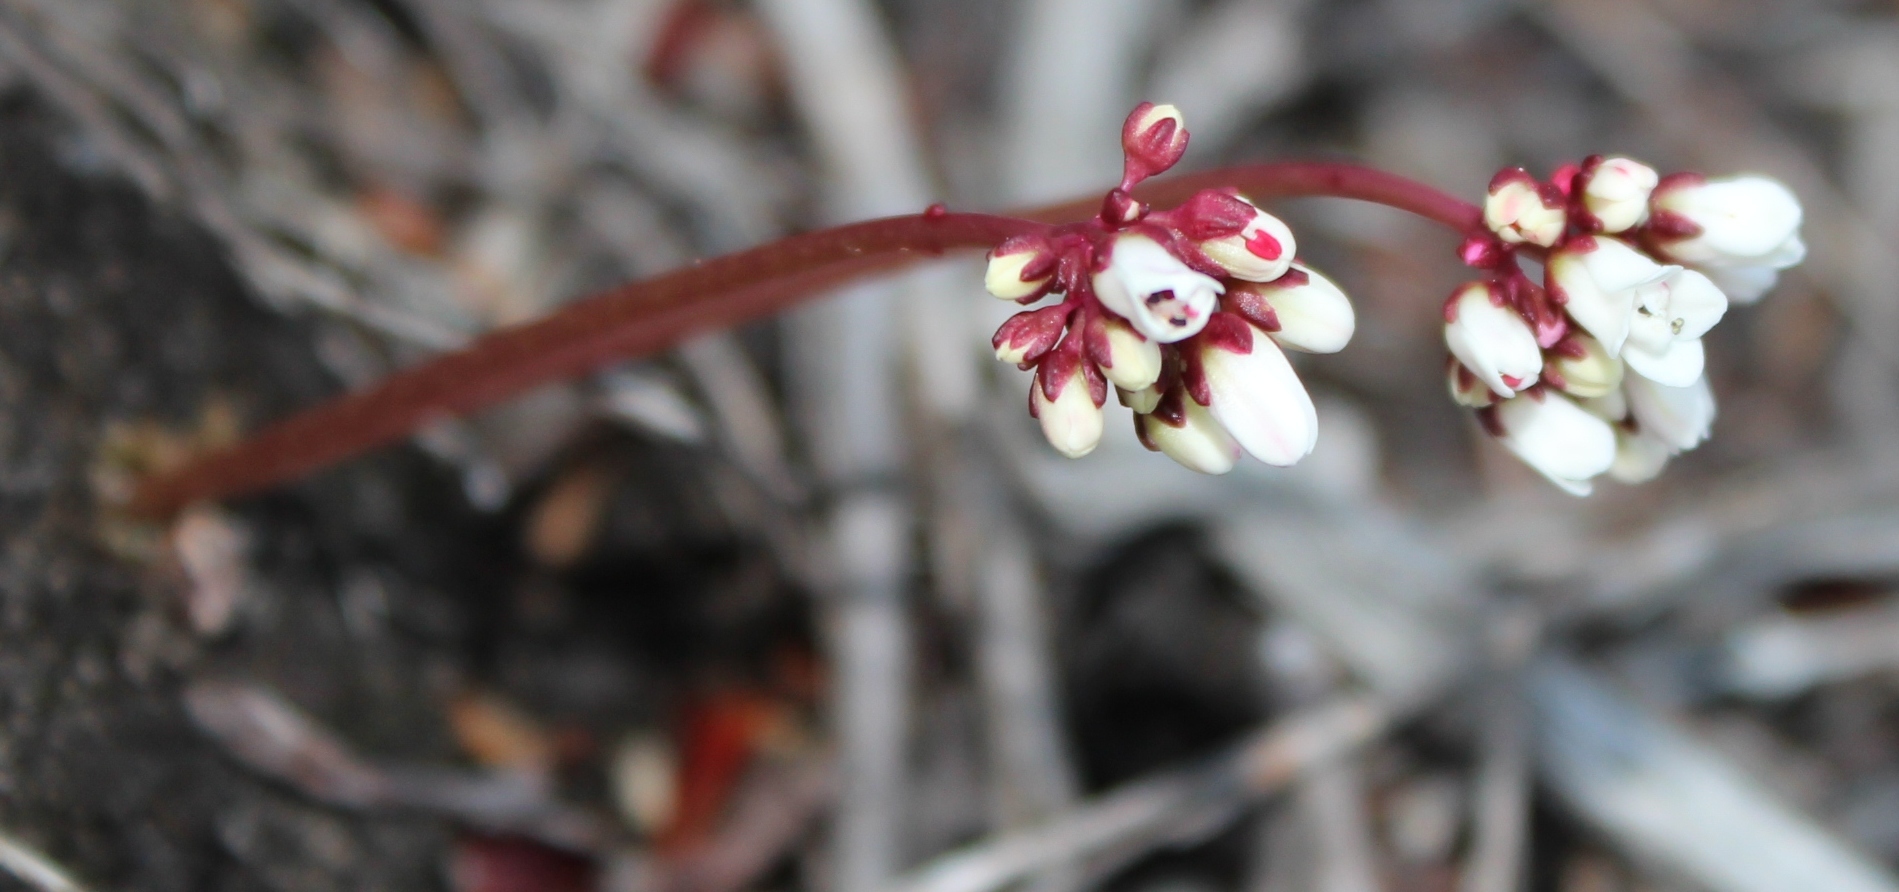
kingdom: Plantae
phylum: Tracheophyta
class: Magnoliopsida
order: Saxifragales
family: Crassulaceae
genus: Crassula
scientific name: Crassula saxifraga
